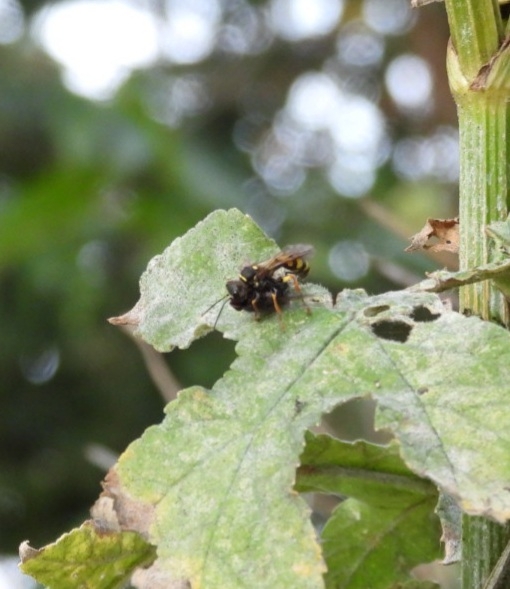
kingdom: Animalia
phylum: Arthropoda
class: Insecta
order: Hymenoptera
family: Crabronidae
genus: Mellinus
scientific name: Mellinus arvensis
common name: Field digger wasp
